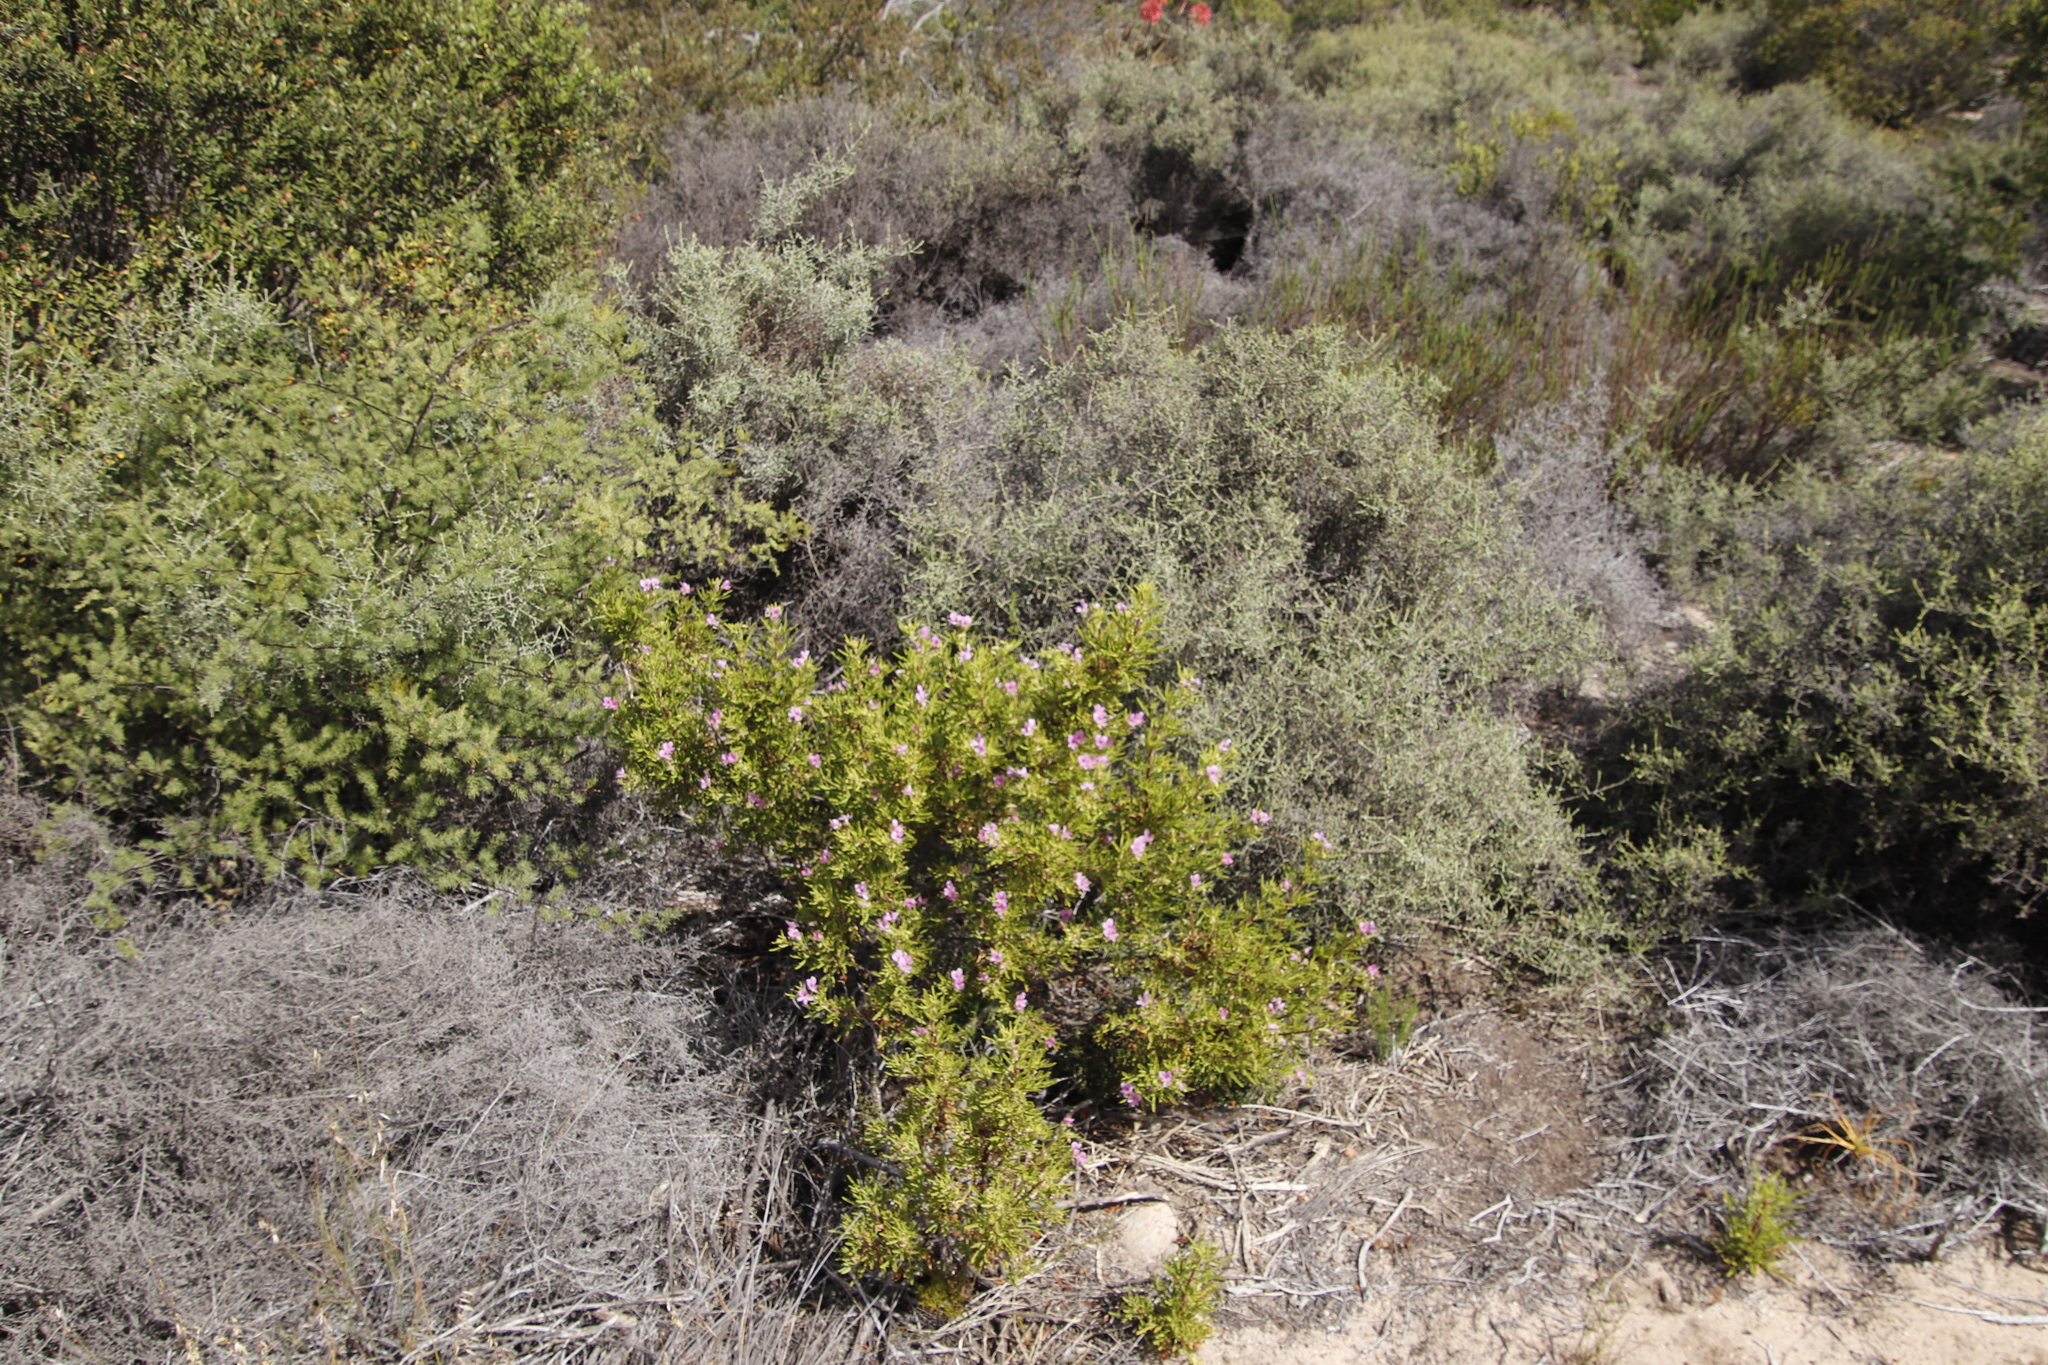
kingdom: Plantae
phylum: Tracheophyta
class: Magnoliopsida
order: Asterales
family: Asteraceae
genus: Myrovernix
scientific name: Myrovernix intricata
